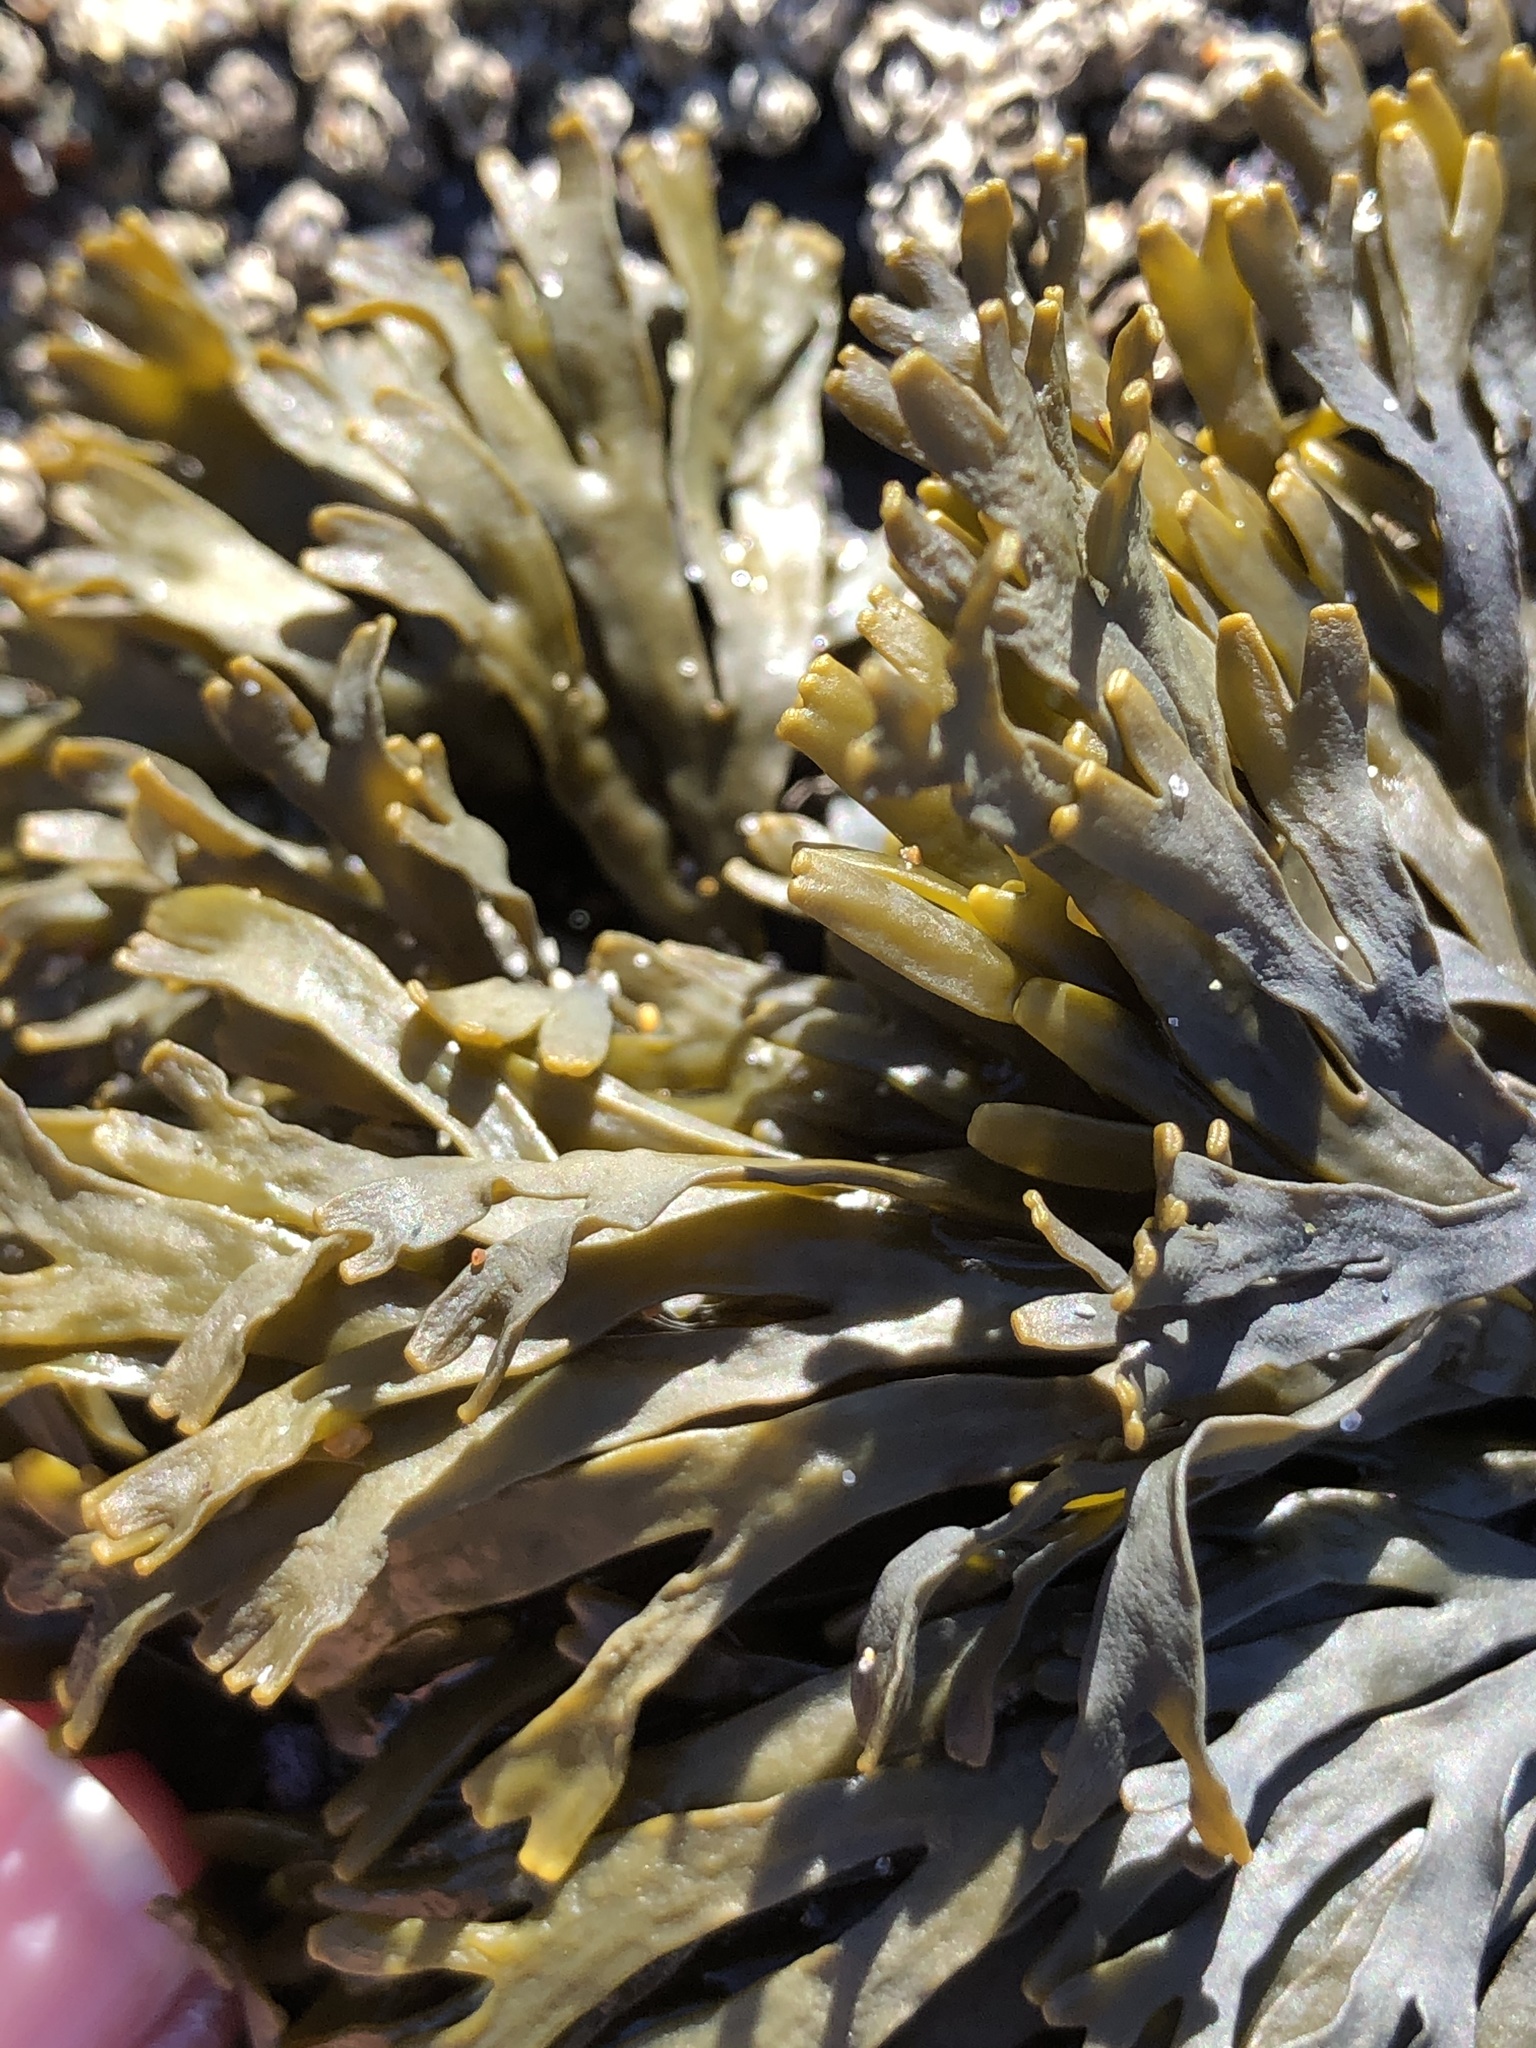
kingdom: Chromista
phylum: Ochrophyta
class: Phaeophyceae
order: Fucales
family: Fucaceae
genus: Pelvetiopsis
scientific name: Pelvetiopsis limitata
